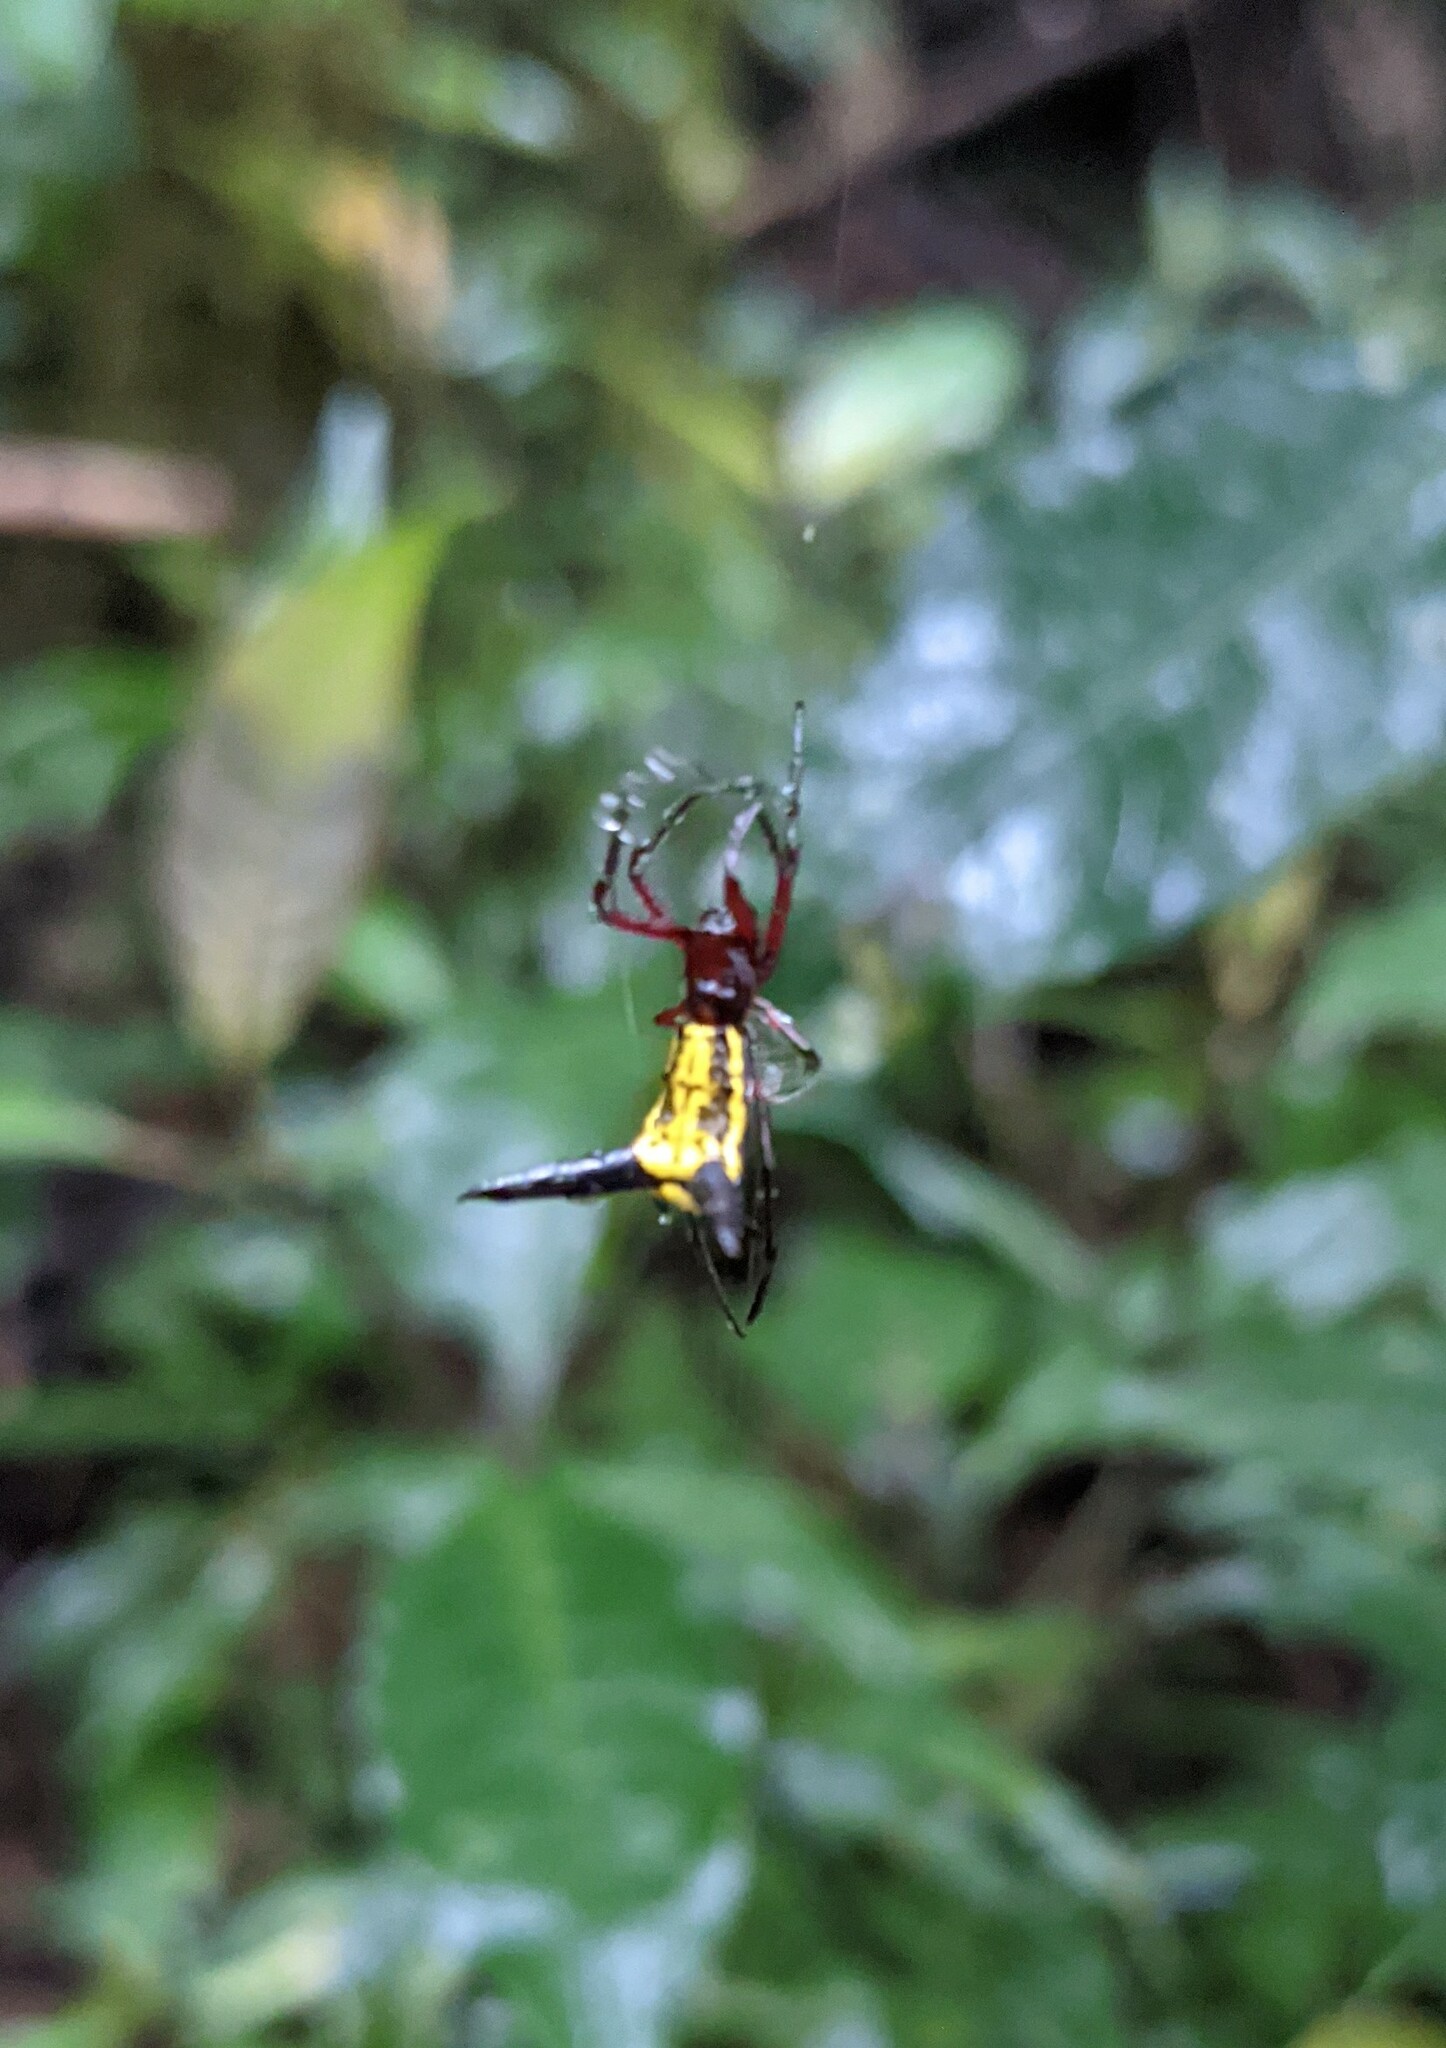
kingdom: Animalia
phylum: Arthropoda
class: Arachnida
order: Araneae
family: Araneidae
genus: Micrathena
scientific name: Micrathena kochalkai
